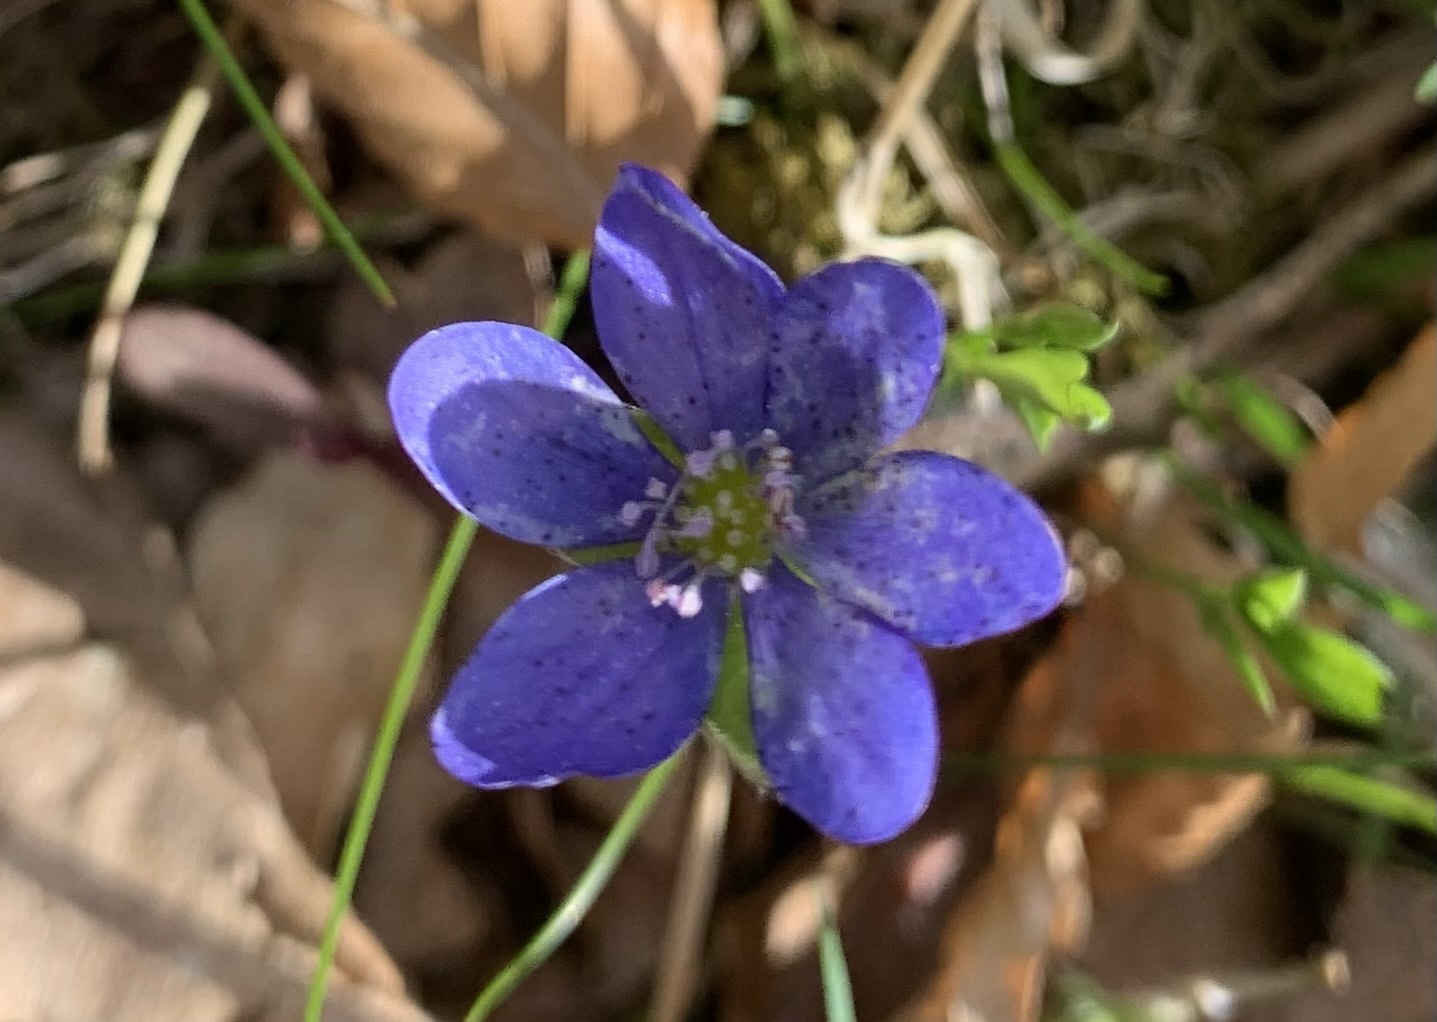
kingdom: Plantae
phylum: Tracheophyta
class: Magnoliopsida
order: Ranunculales
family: Ranunculaceae
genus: Hepatica
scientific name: Hepatica nobilis
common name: Liverleaf
